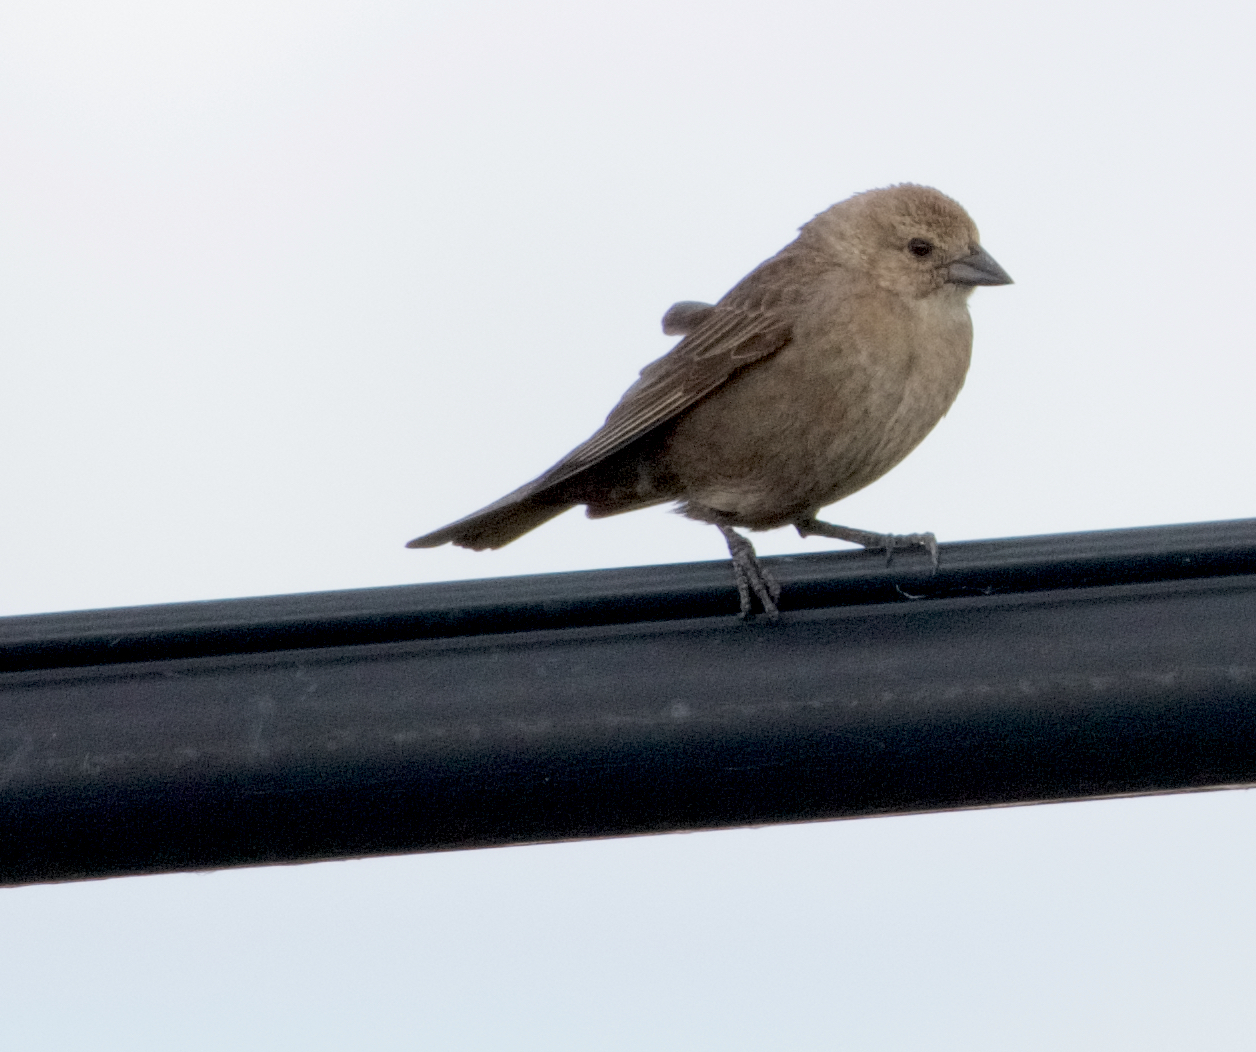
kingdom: Animalia
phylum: Chordata
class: Aves
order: Passeriformes
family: Icteridae
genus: Molothrus
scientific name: Molothrus ater
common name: Brown-headed cowbird
